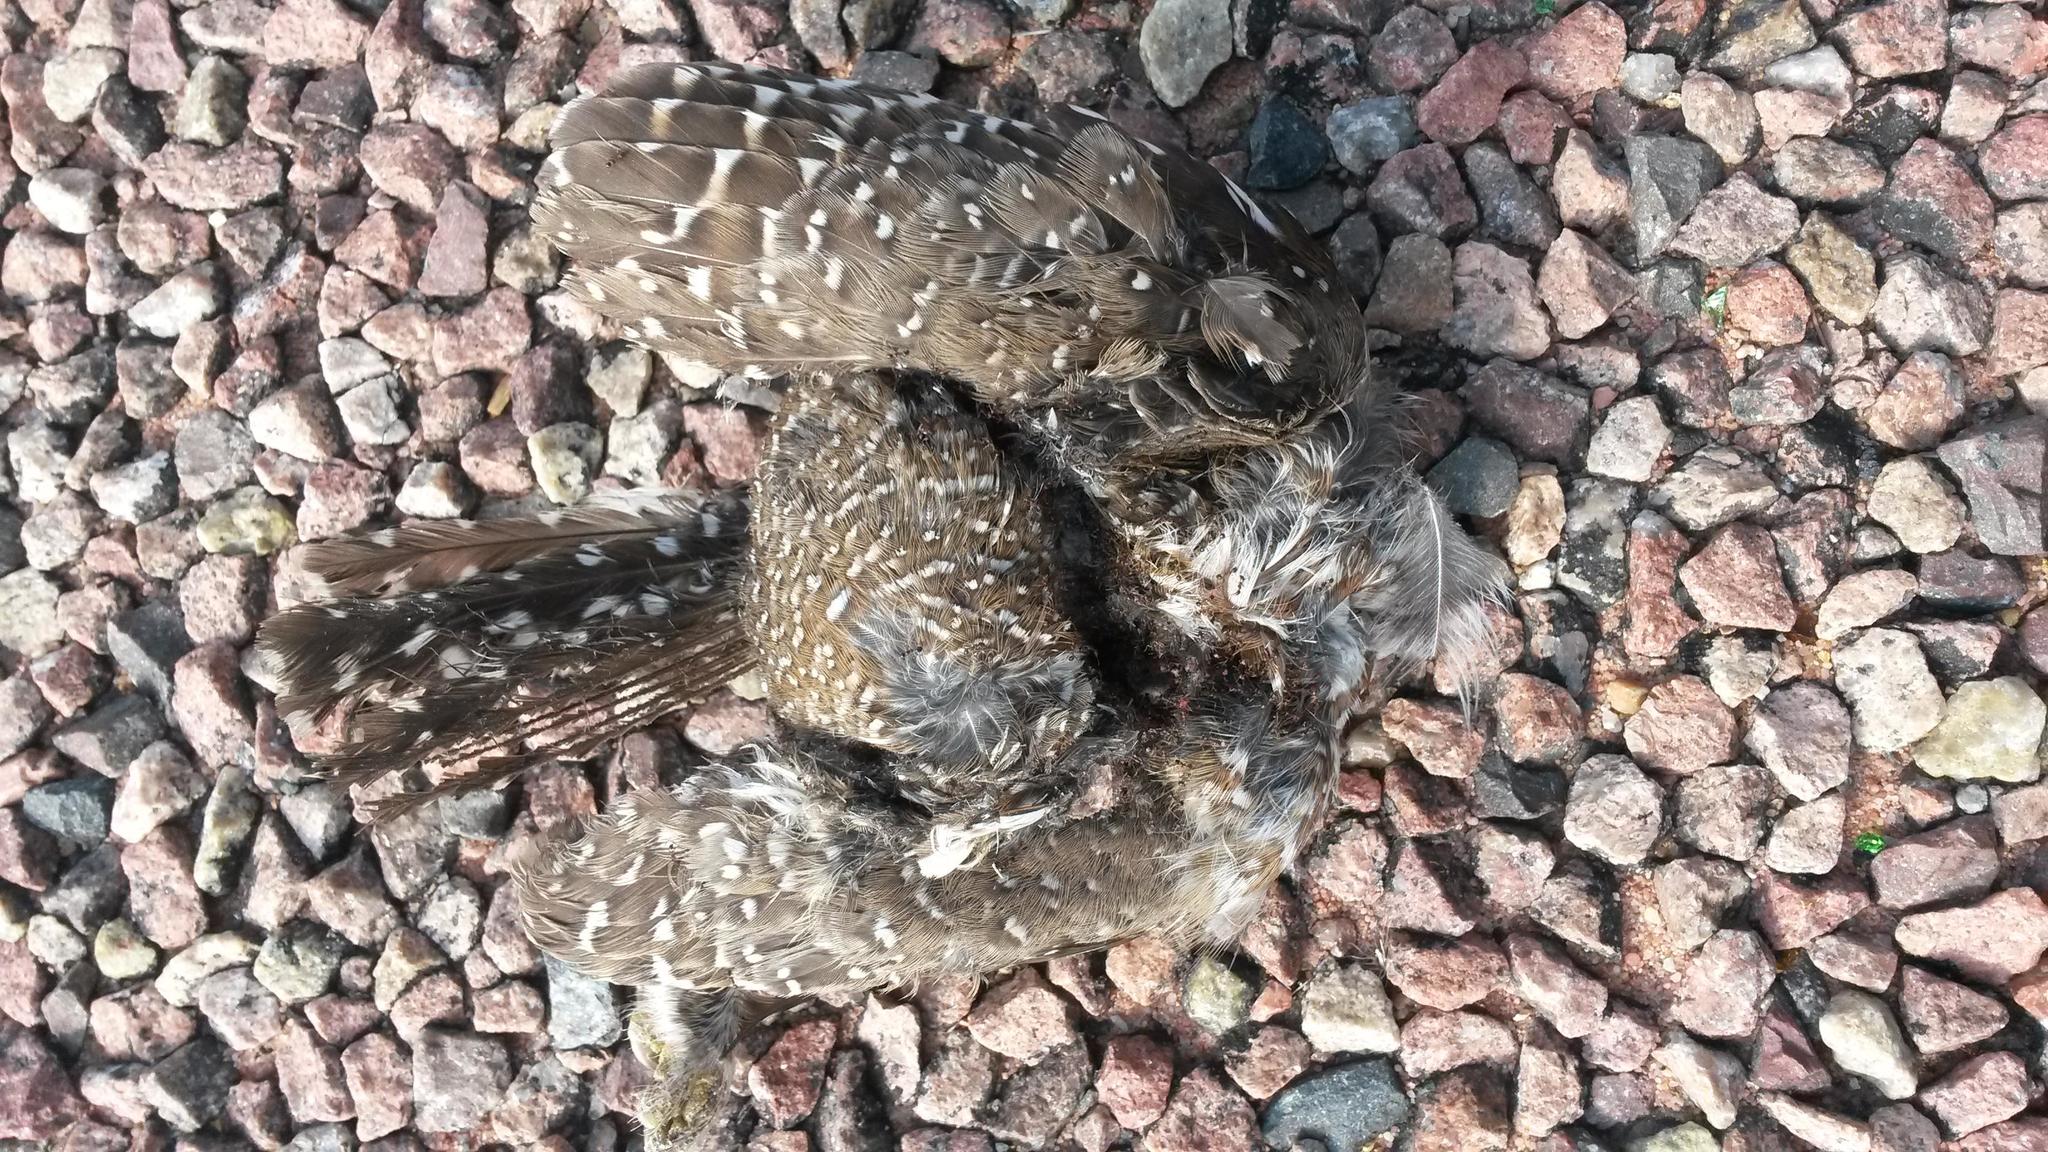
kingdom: Animalia
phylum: Chordata
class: Aves
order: Strigiformes
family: Strigidae
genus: Glaucidium
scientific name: Glaucidium perlatum
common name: Pearl-spotted owlet
